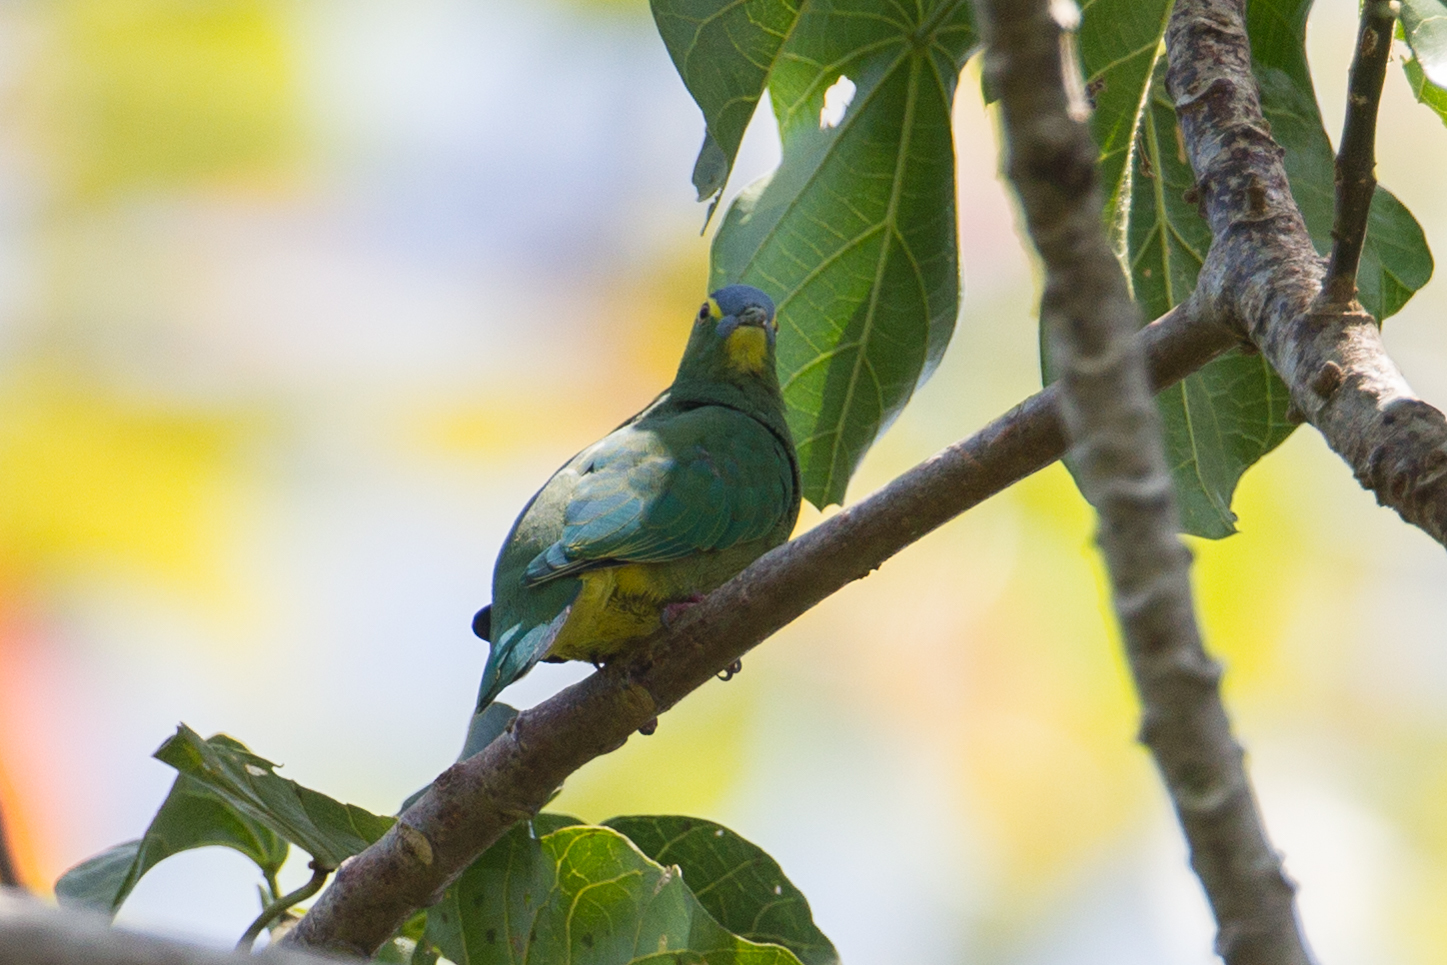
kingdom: Animalia
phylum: Chordata
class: Aves
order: Columbiformes
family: Columbidae
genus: Ptilinopus
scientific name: Ptilinopus monacha
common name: Blue-capped fruit dove
